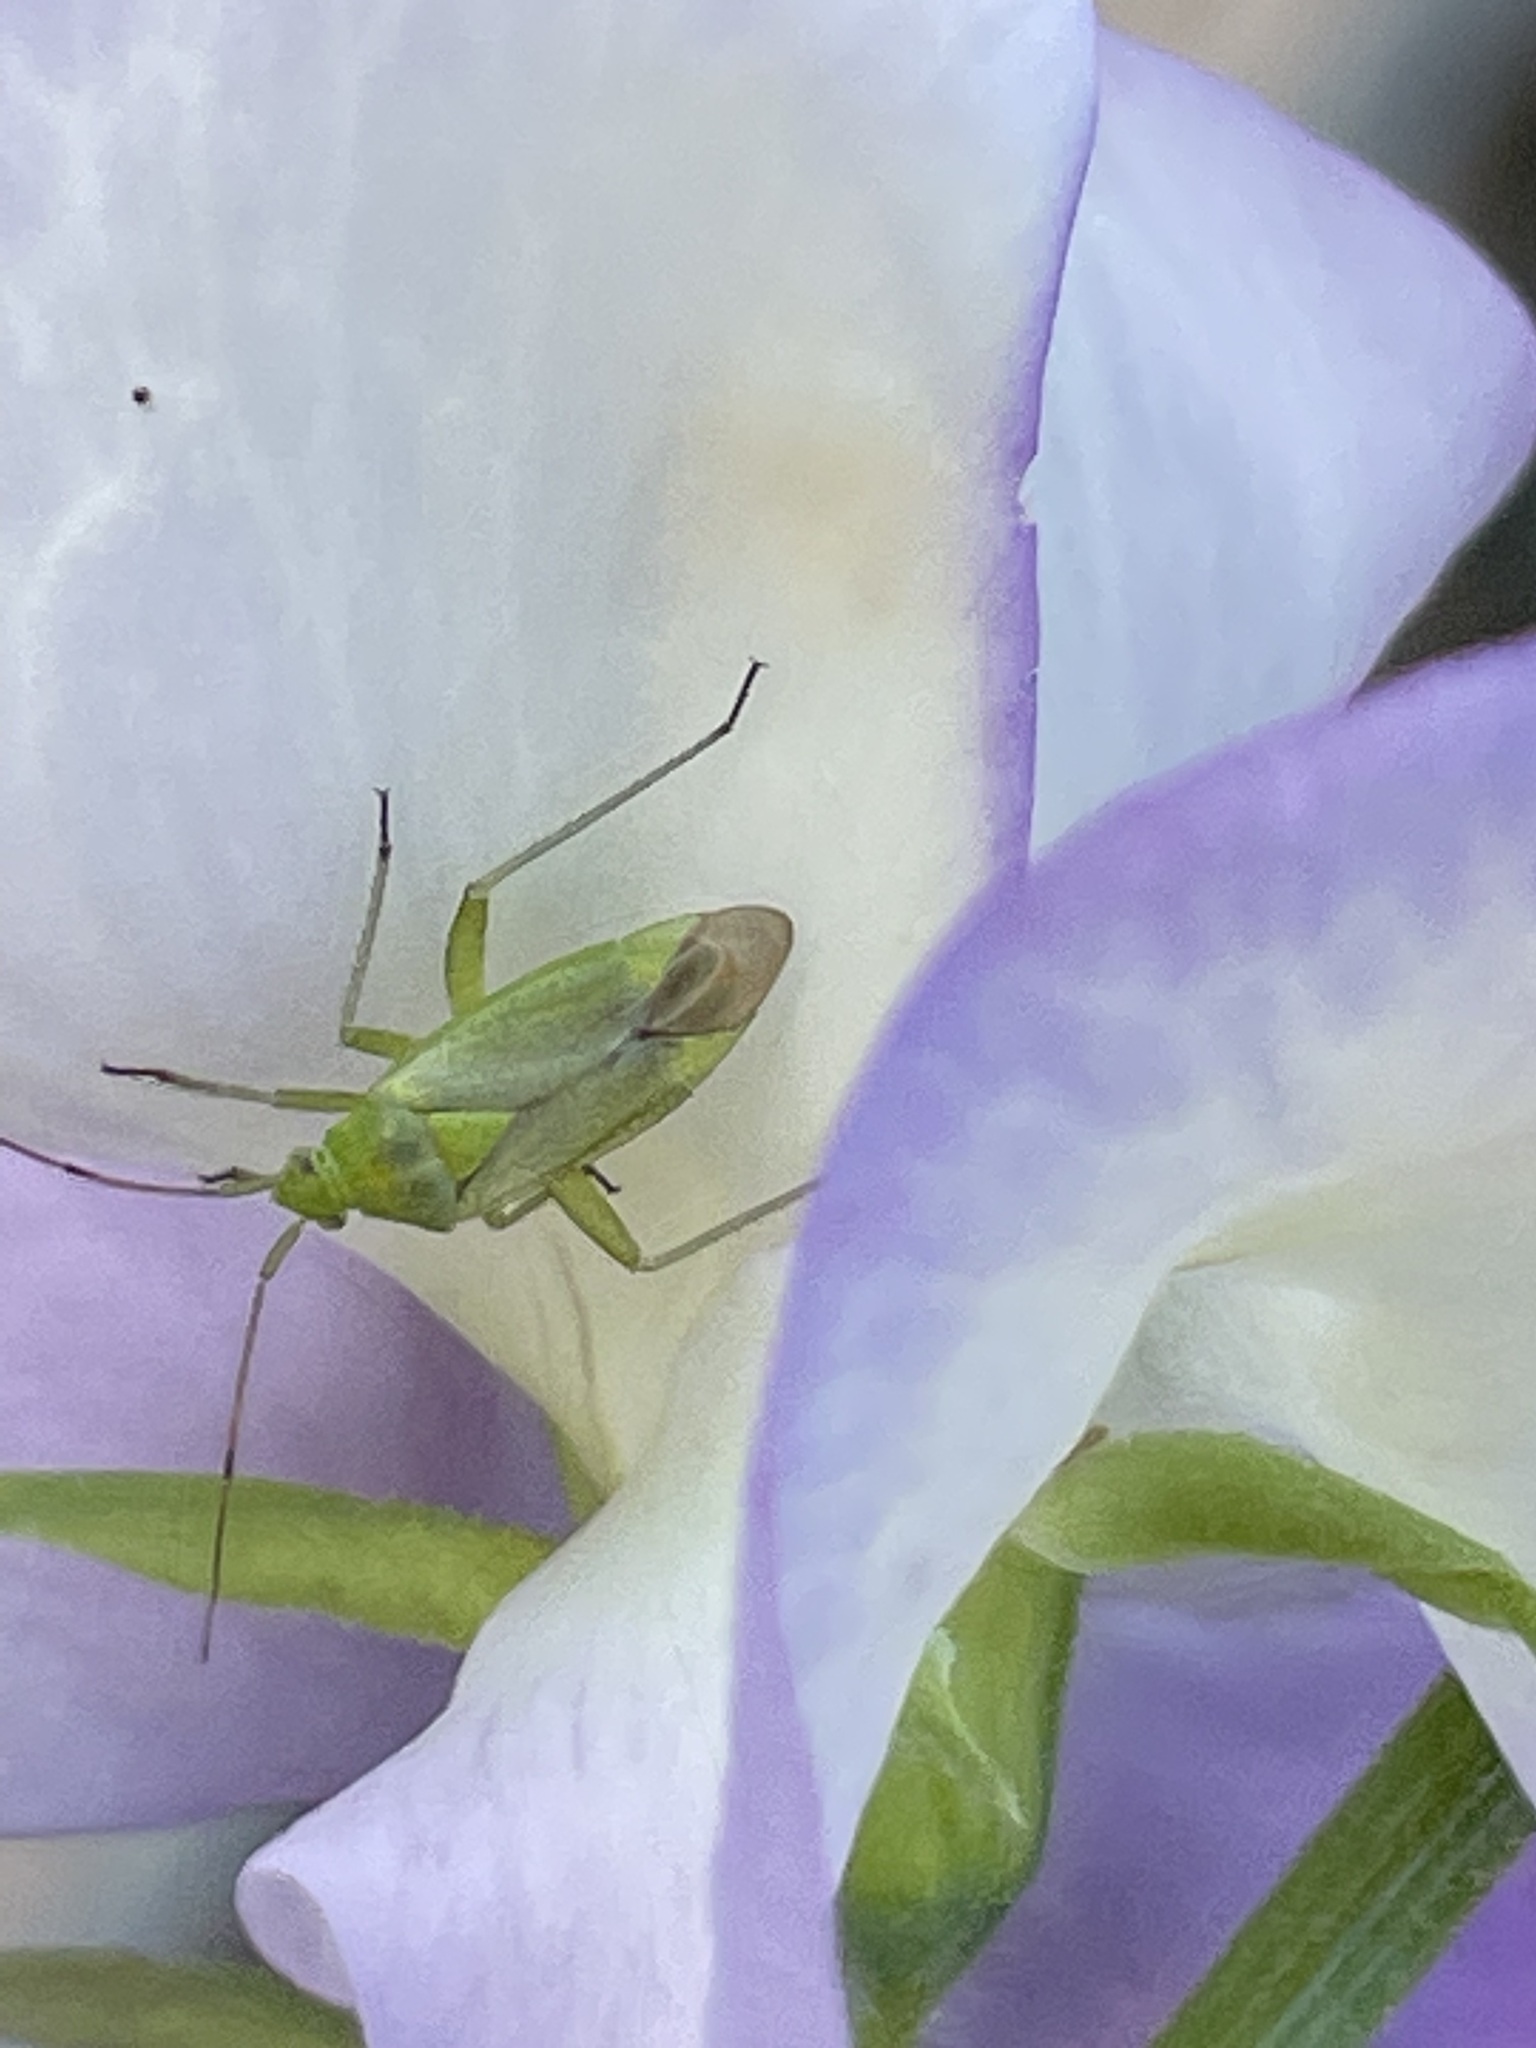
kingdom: Animalia
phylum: Arthropoda
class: Insecta
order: Hemiptera
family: Miridae
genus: Closterotomus
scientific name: Closterotomus norvegicus
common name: Plant bug
